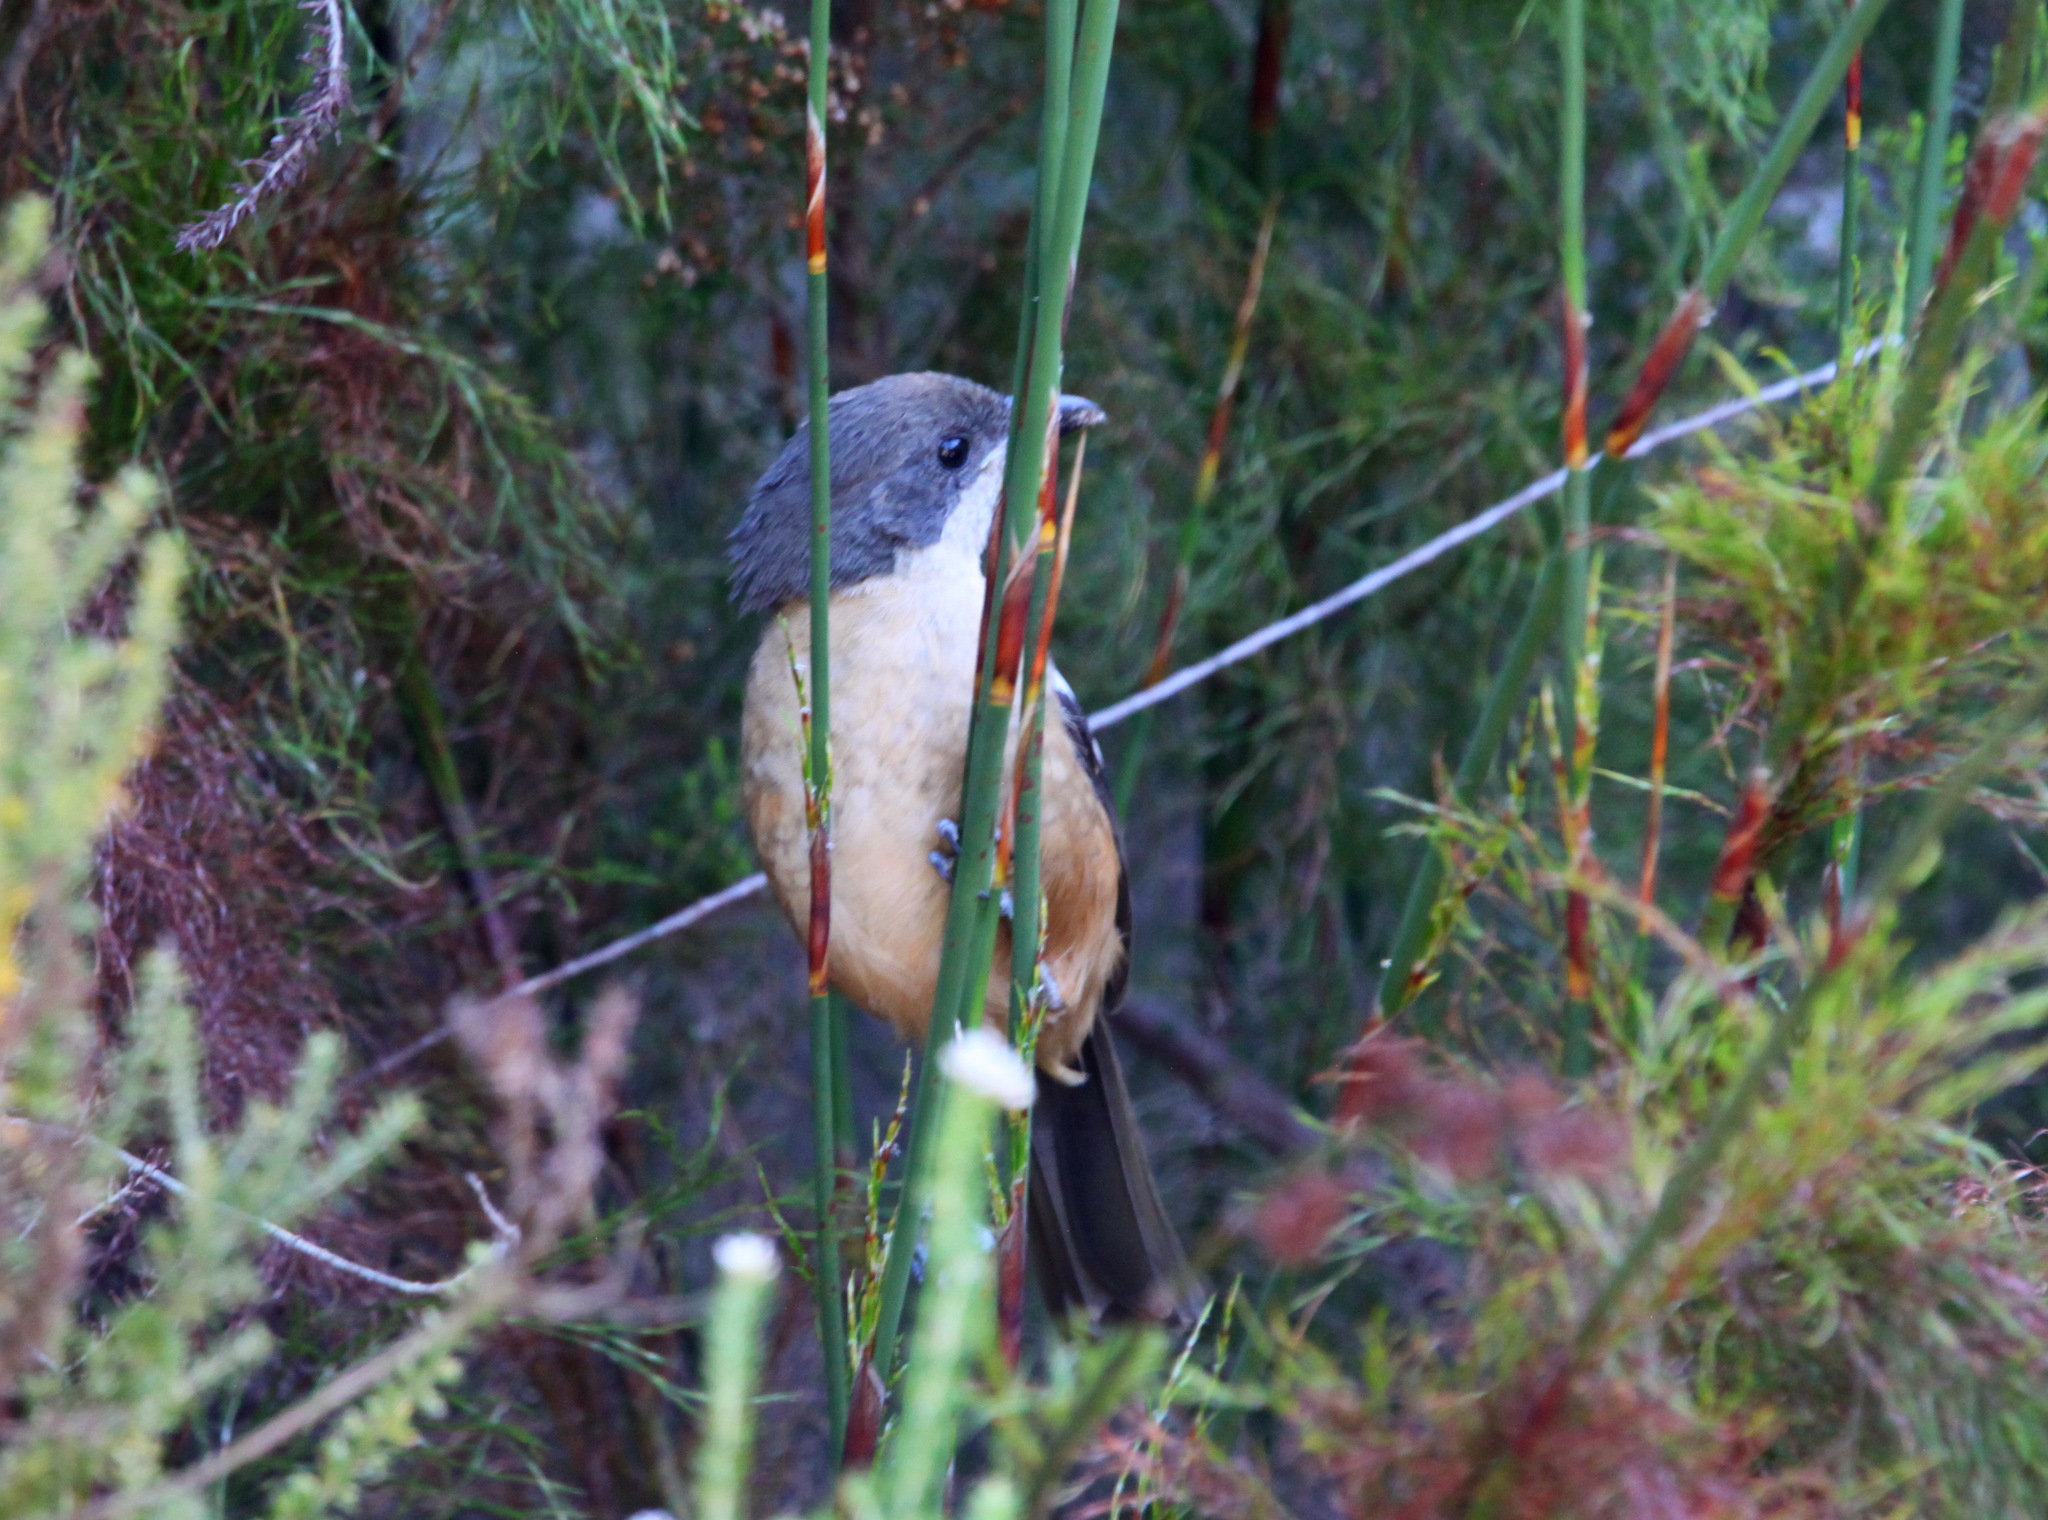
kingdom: Animalia
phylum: Chordata
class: Aves
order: Passeriformes
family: Malaconotidae
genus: Laniarius
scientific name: Laniarius ferrugineus
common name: Southern boubou
